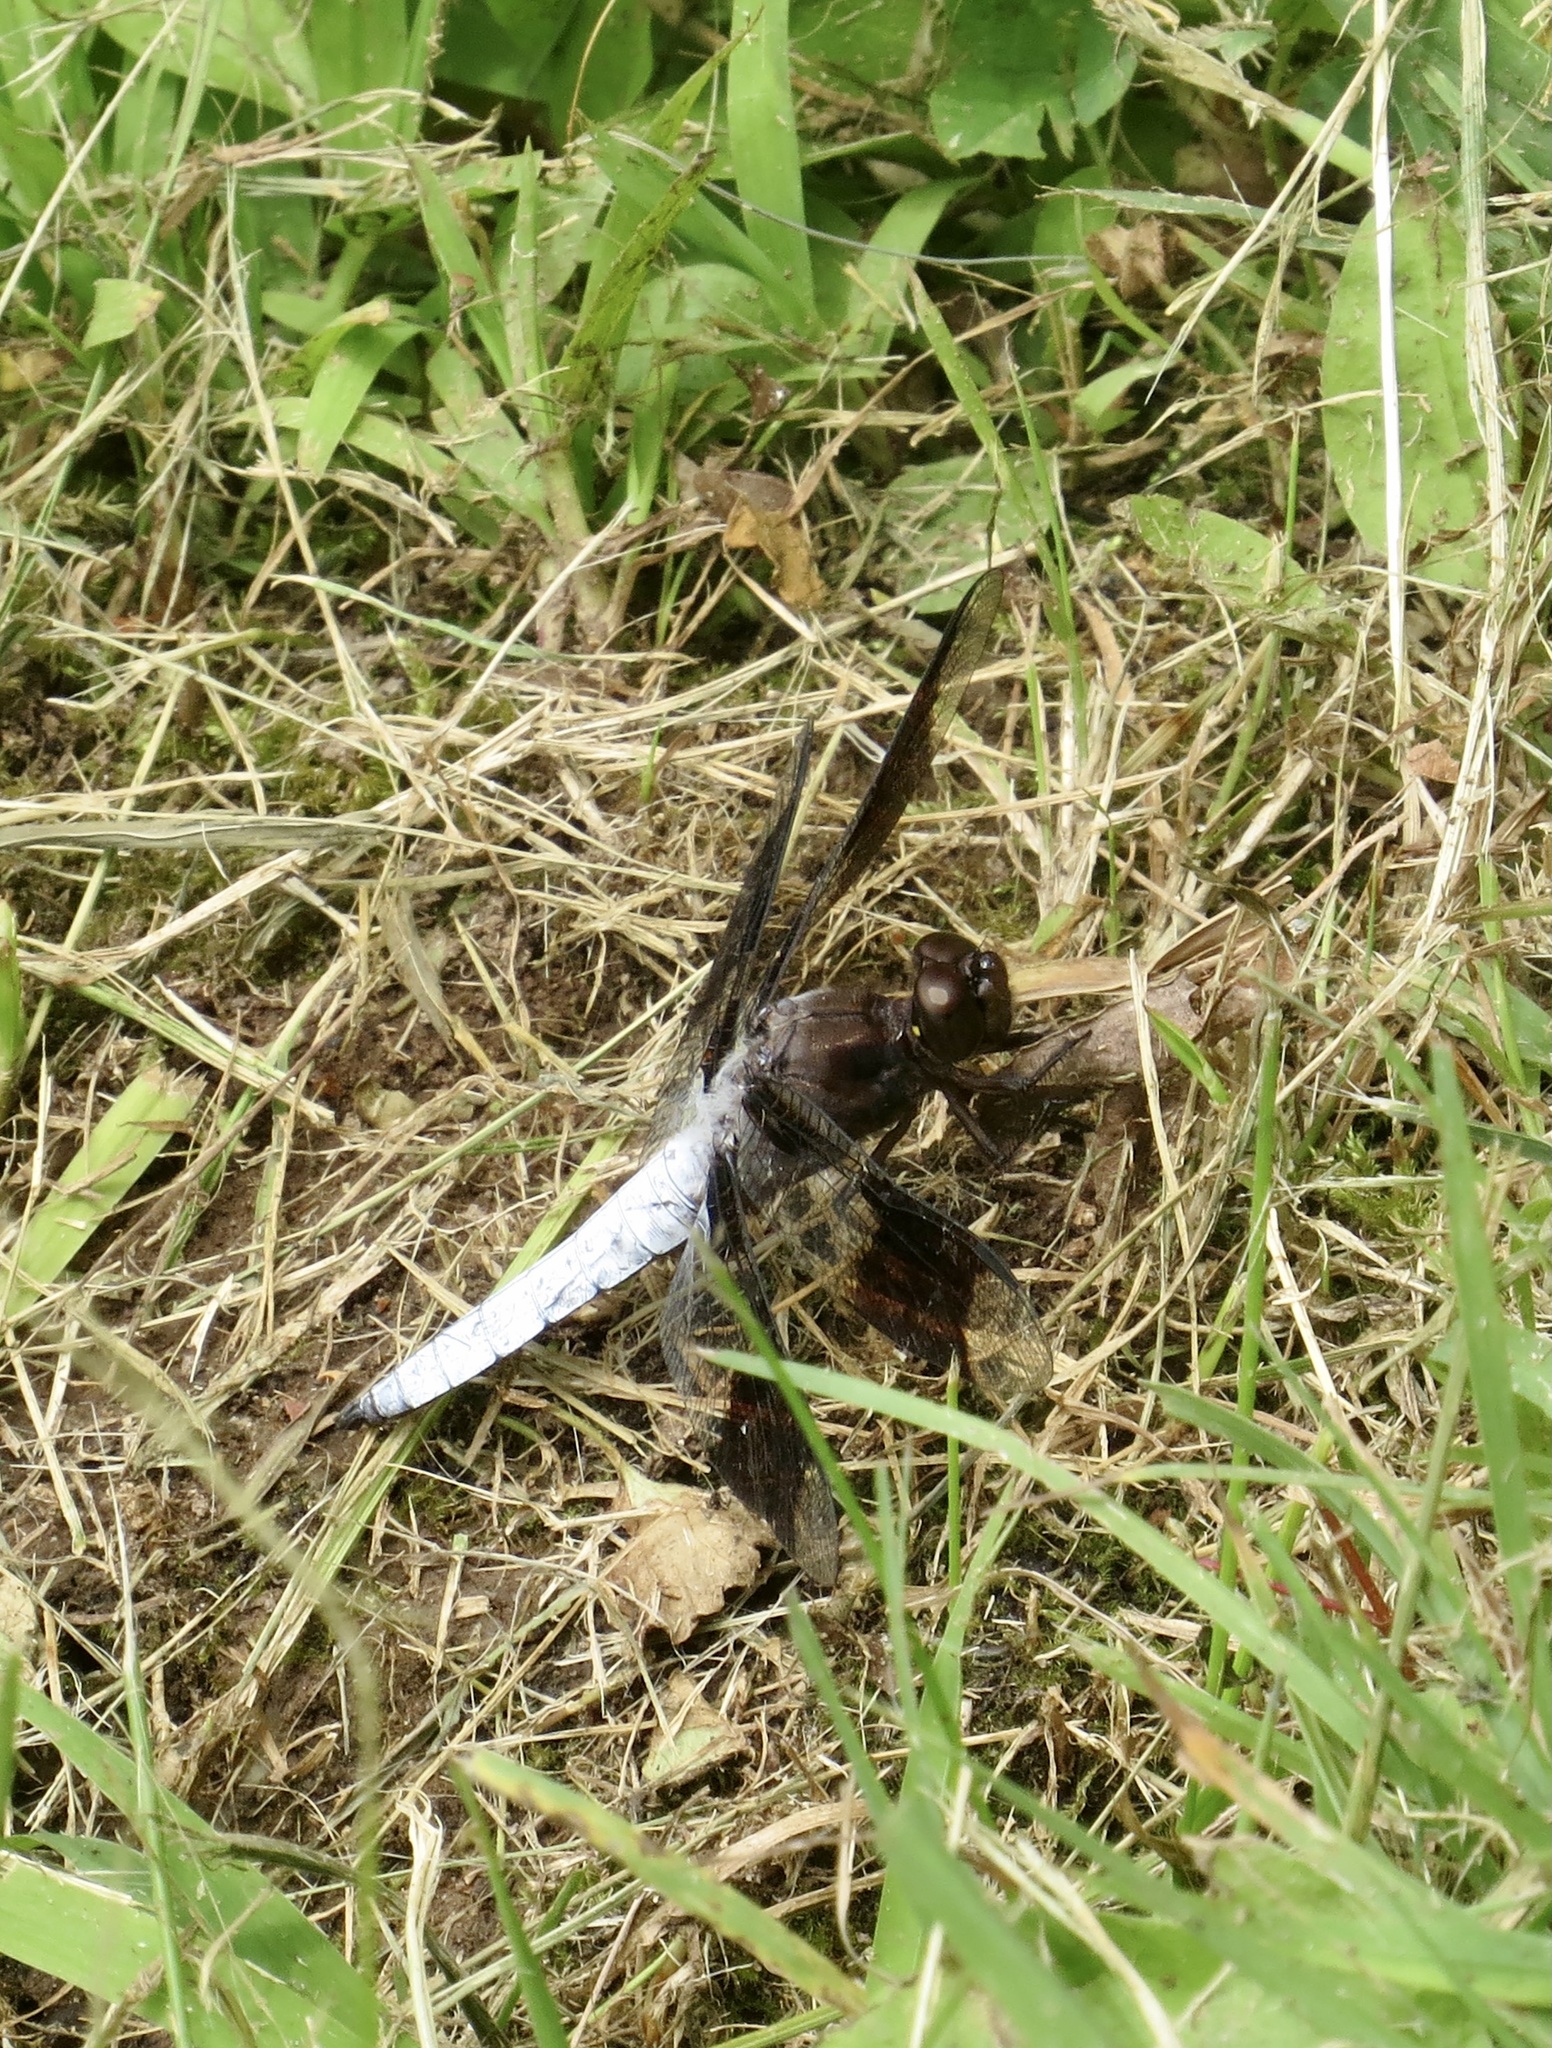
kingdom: Animalia
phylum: Arthropoda
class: Insecta
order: Odonata
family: Libellulidae
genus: Plathemis
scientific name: Plathemis lydia
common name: Common whitetail
